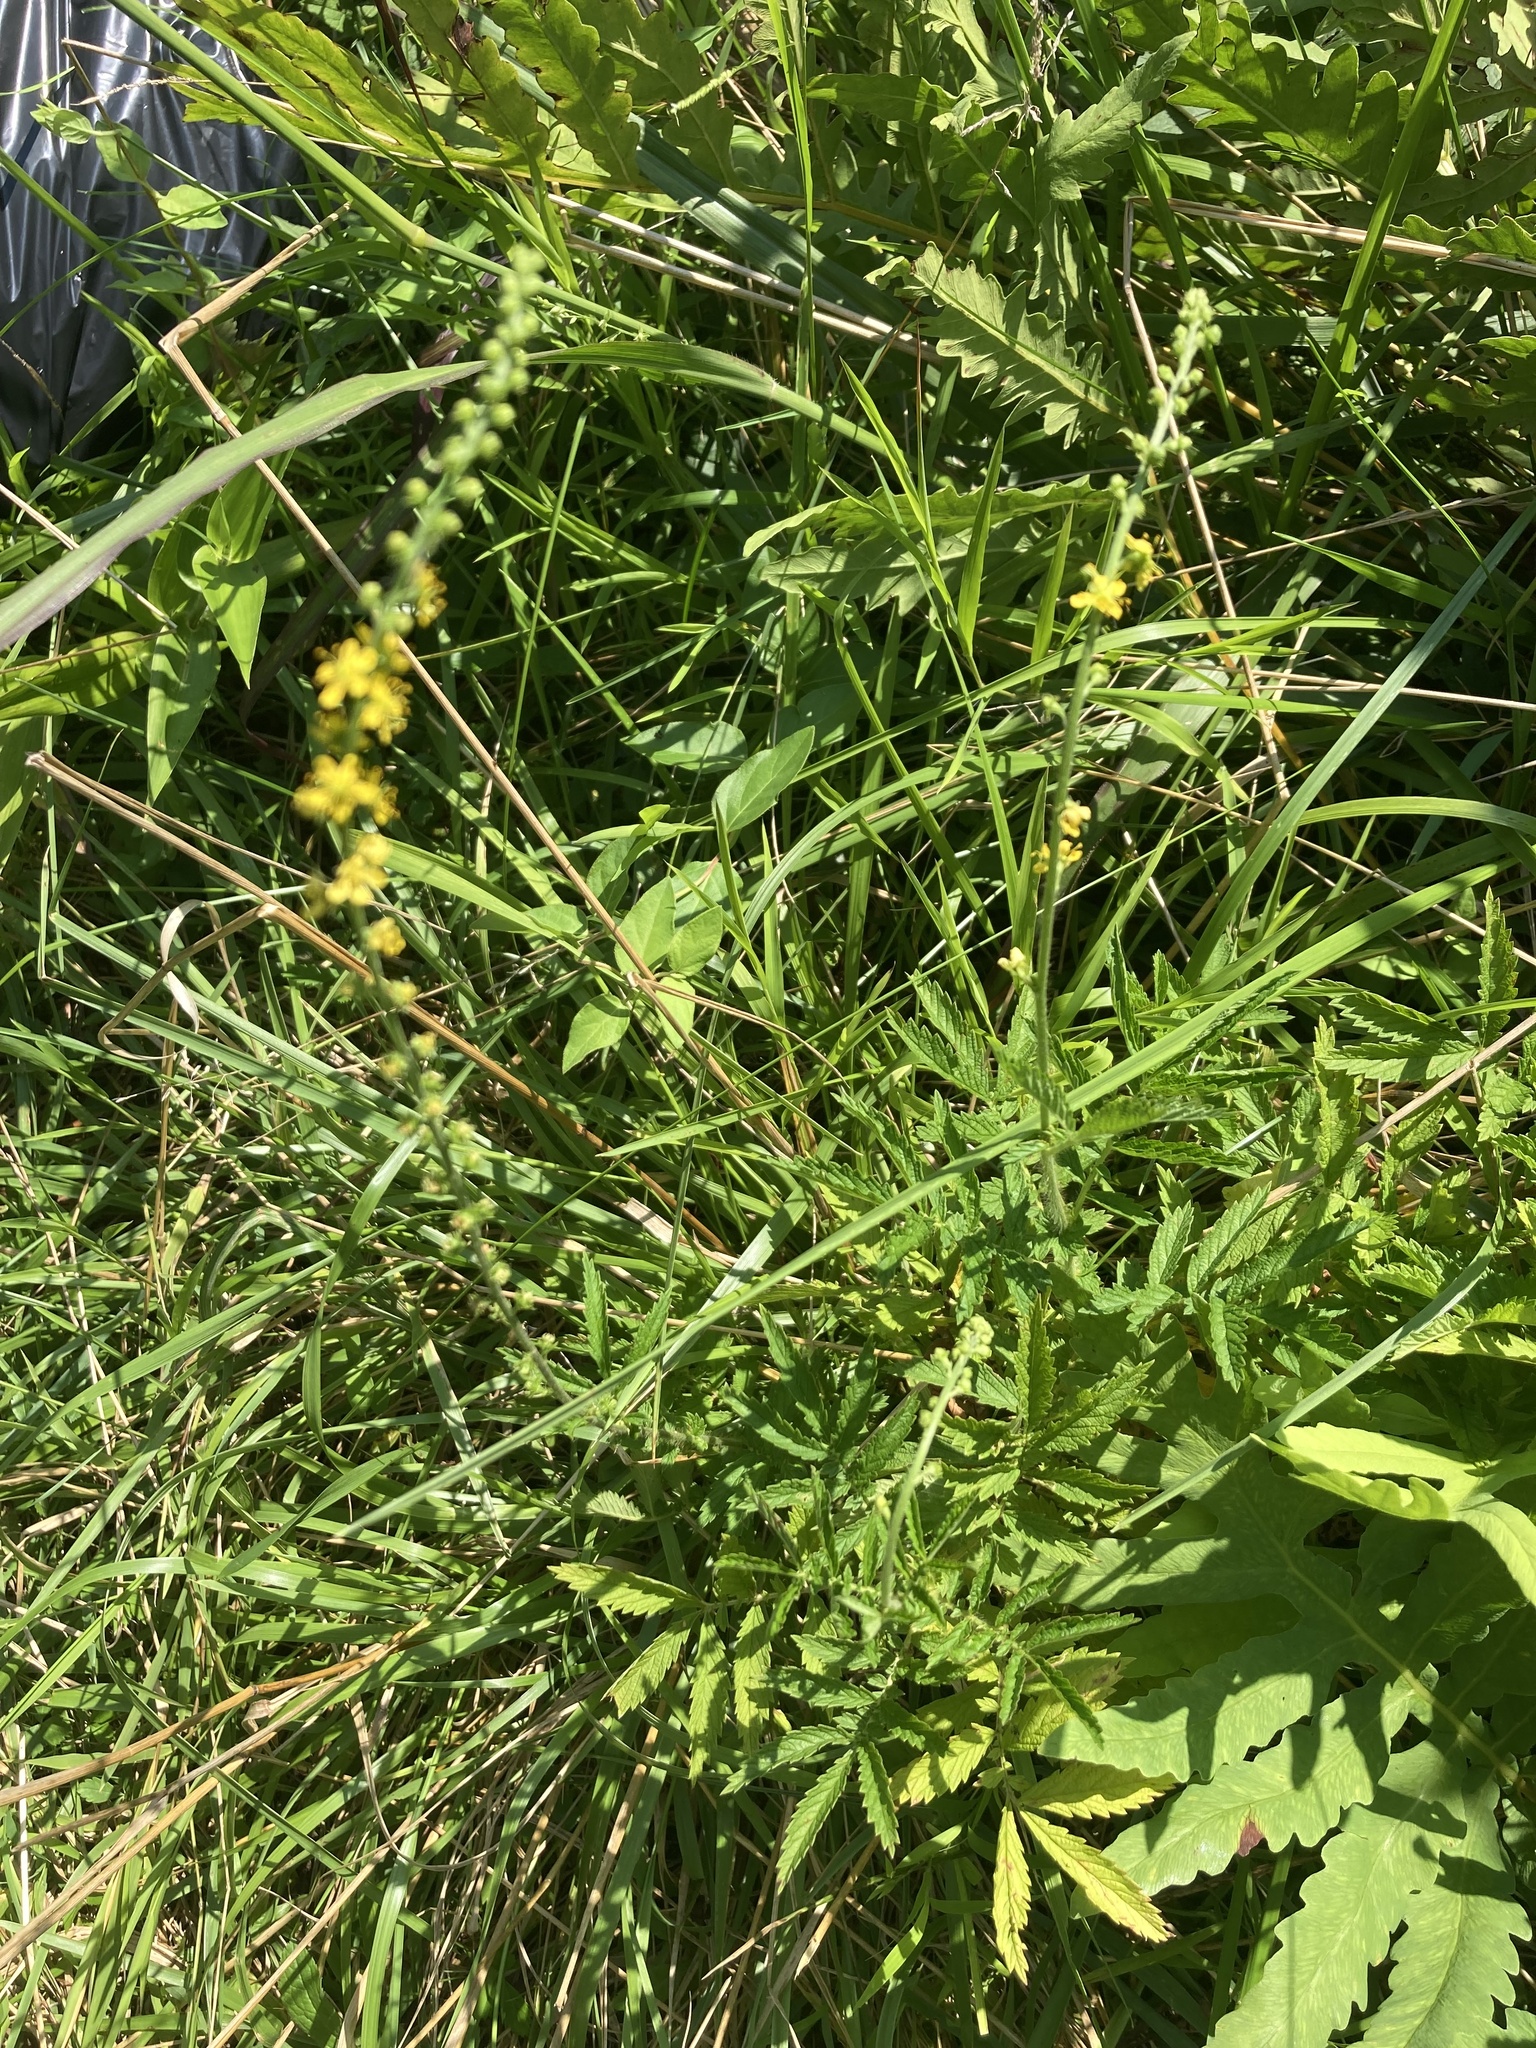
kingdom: Plantae
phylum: Tracheophyta
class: Magnoliopsida
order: Rosales
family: Rosaceae
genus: Agrimonia
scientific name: Agrimonia parviflora
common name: Harvest-lice
